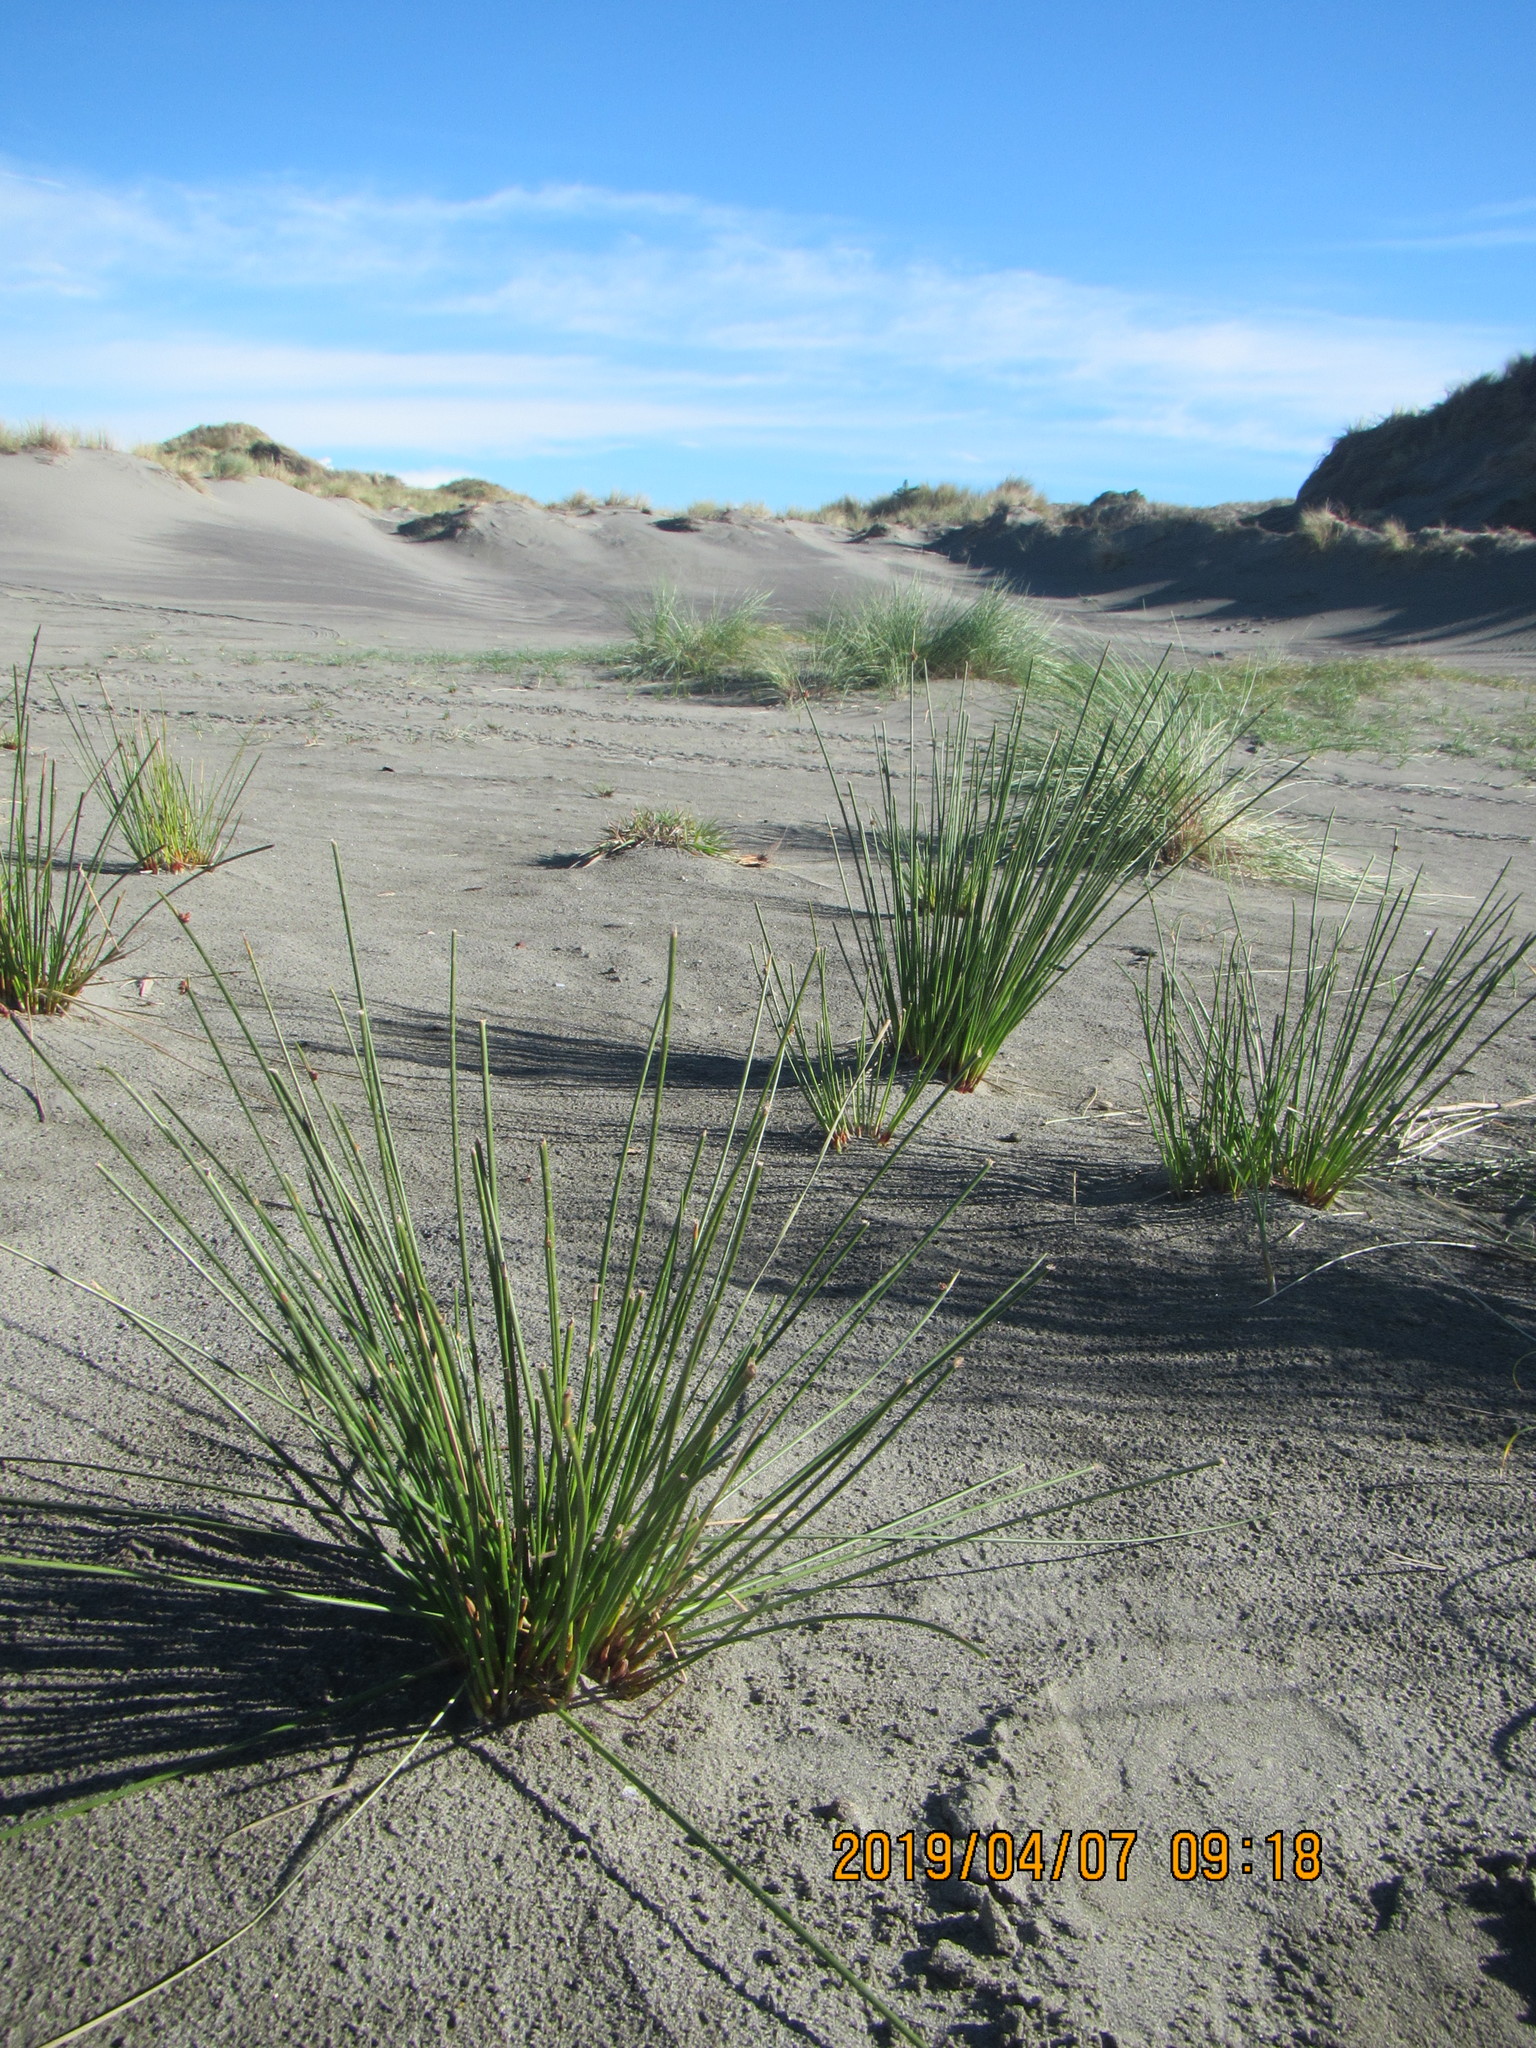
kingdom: Plantae
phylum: Tracheophyta
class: Liliopsida
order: Poales
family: Cyperaceae
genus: Ficinia
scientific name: Ficinia nodosa
